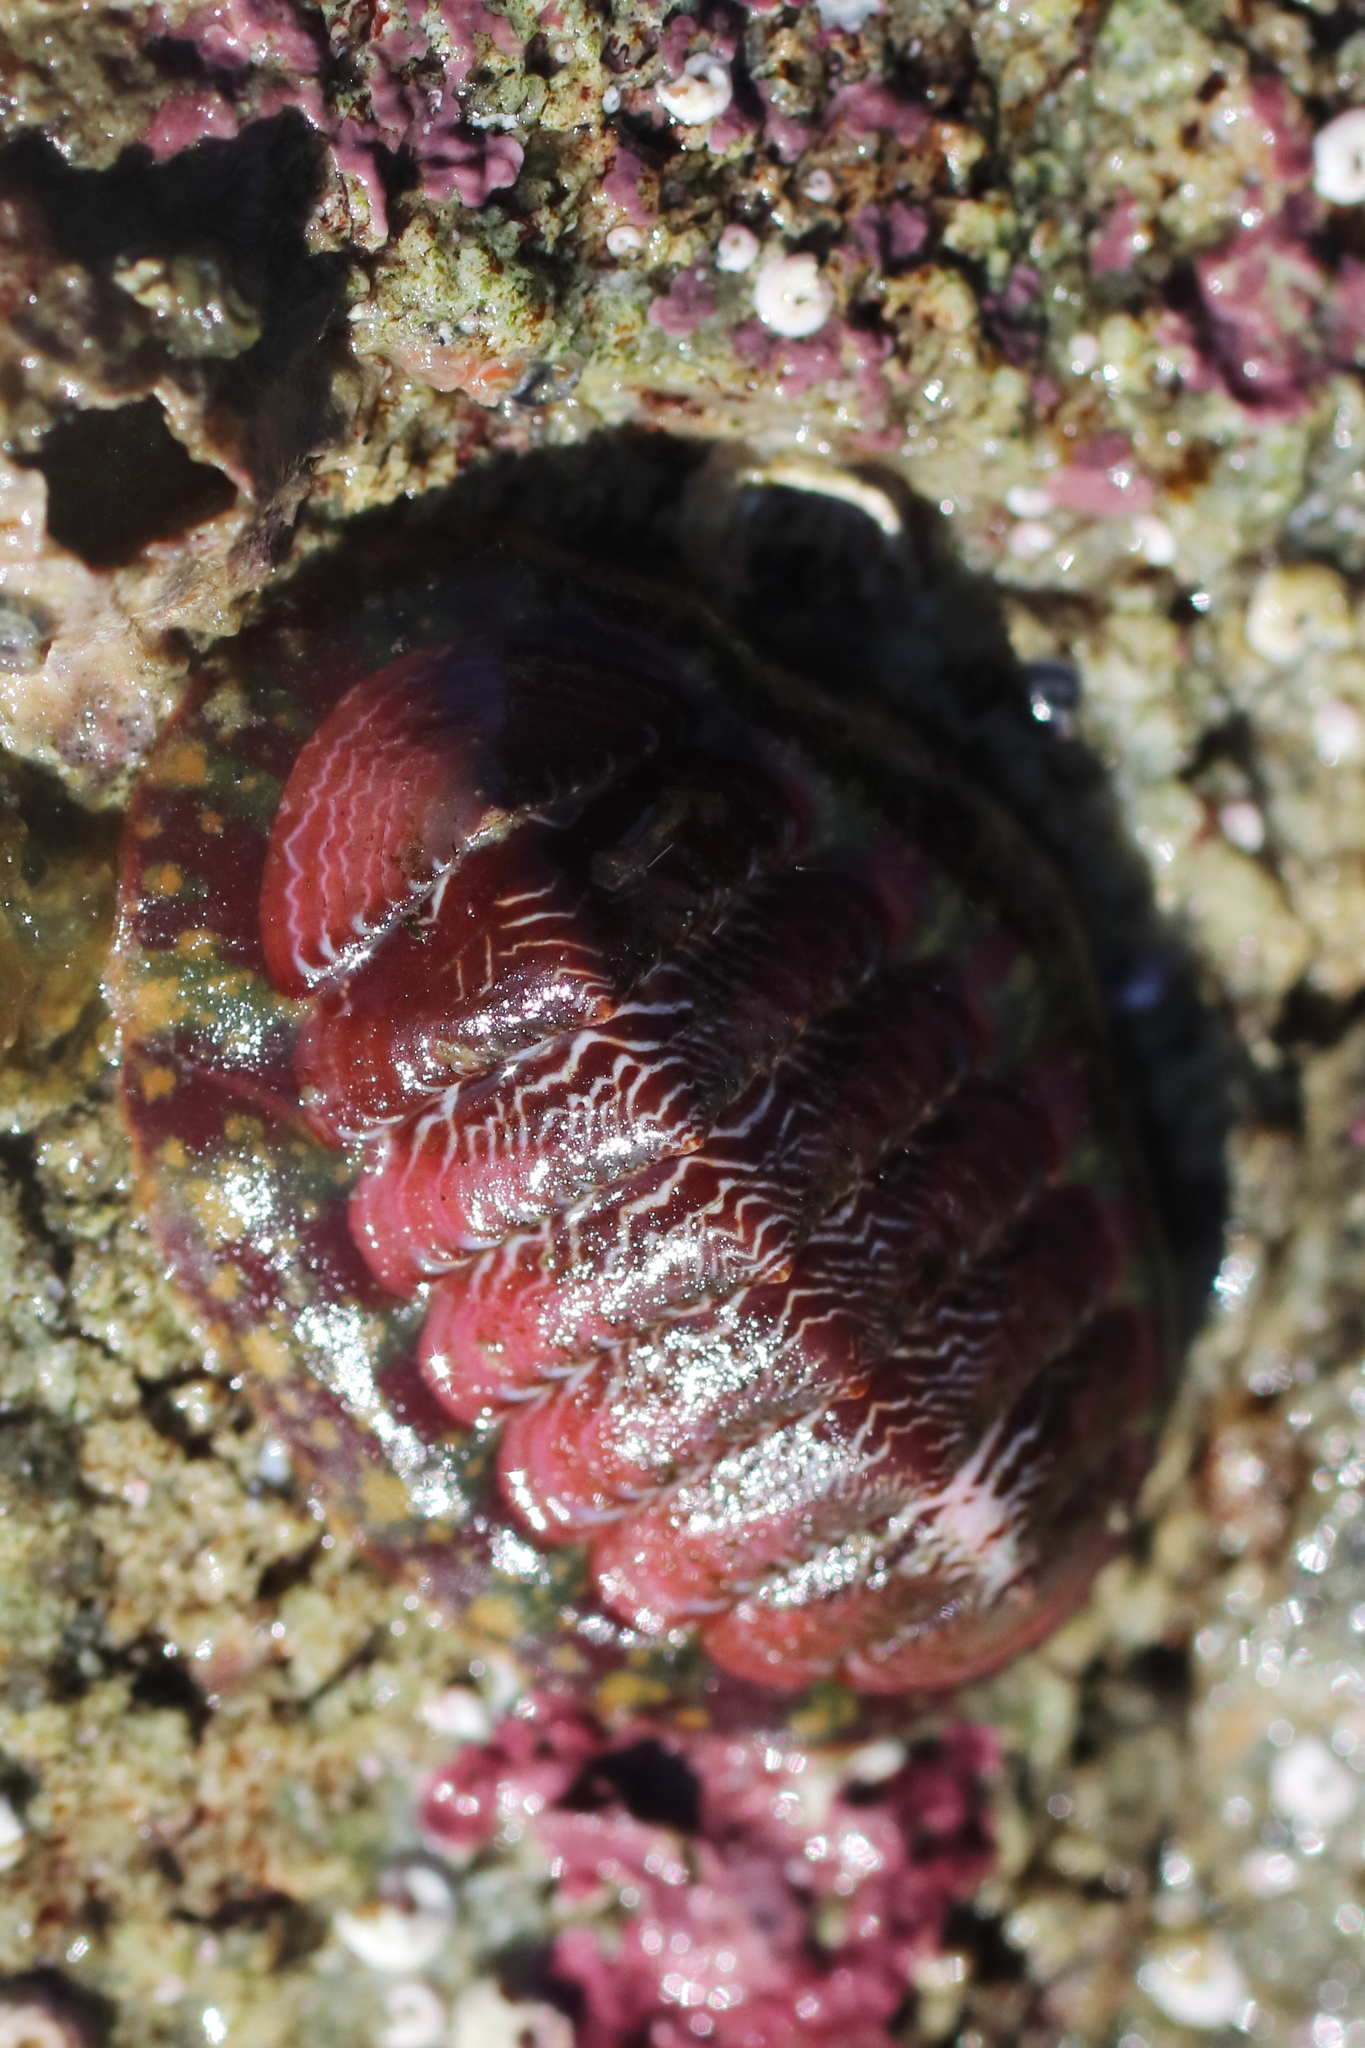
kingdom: Animalia
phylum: Mollusca
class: Polyplacophora
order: Chitonida
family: Tonicellidae
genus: Tonicella
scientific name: Tonicella insignis
